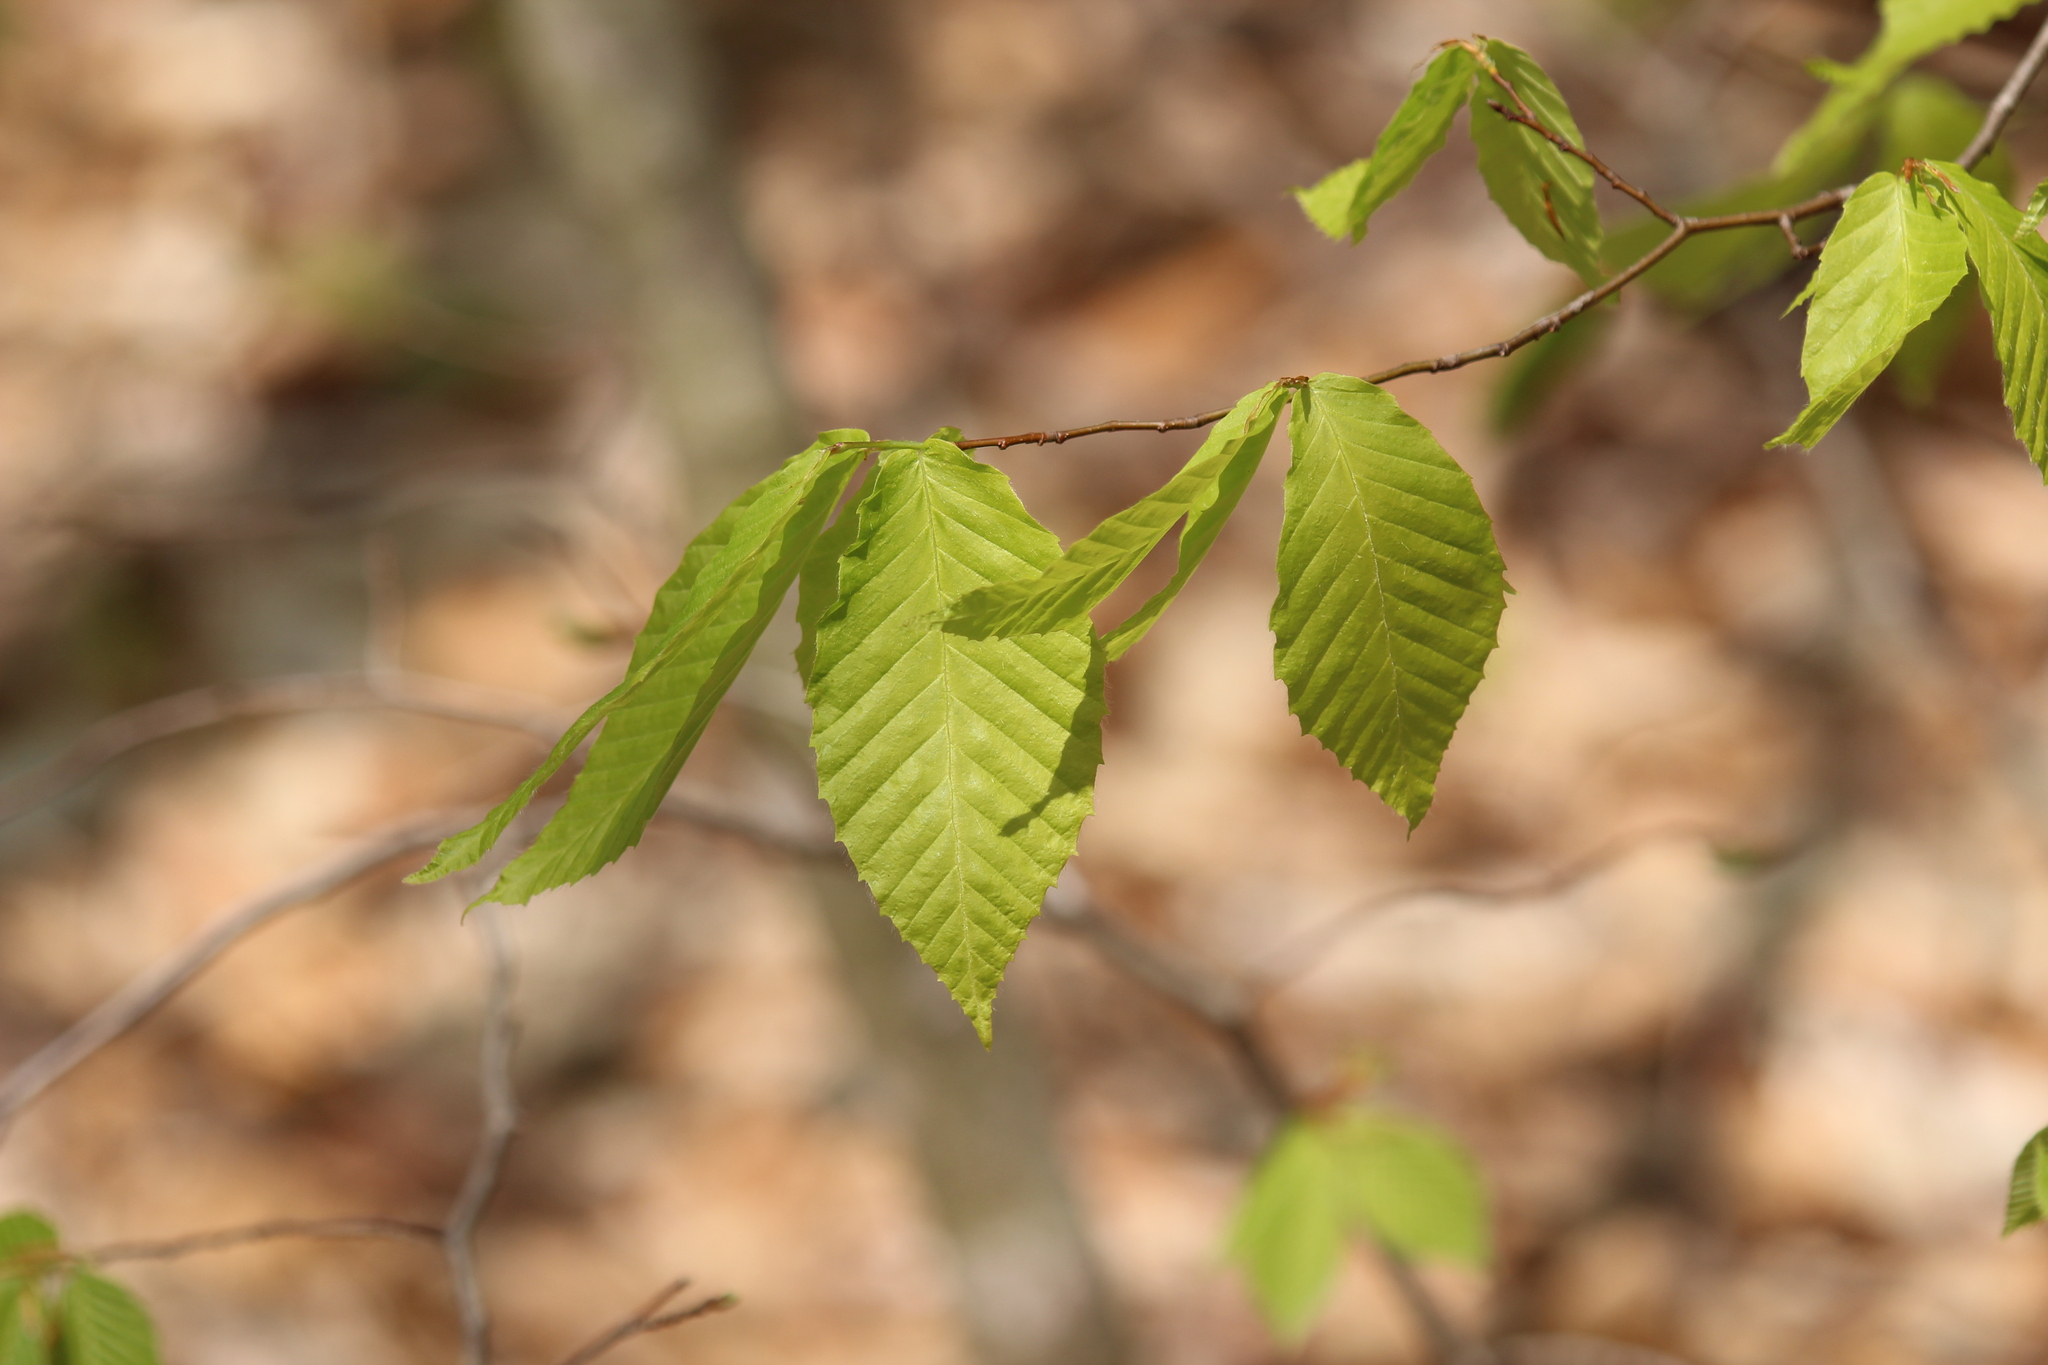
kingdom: Plantae
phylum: Tracheophyta
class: Magnoliopsida
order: Fagales
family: Fagaceae
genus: Fagus
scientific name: Fagus grandifolia
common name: American beech
